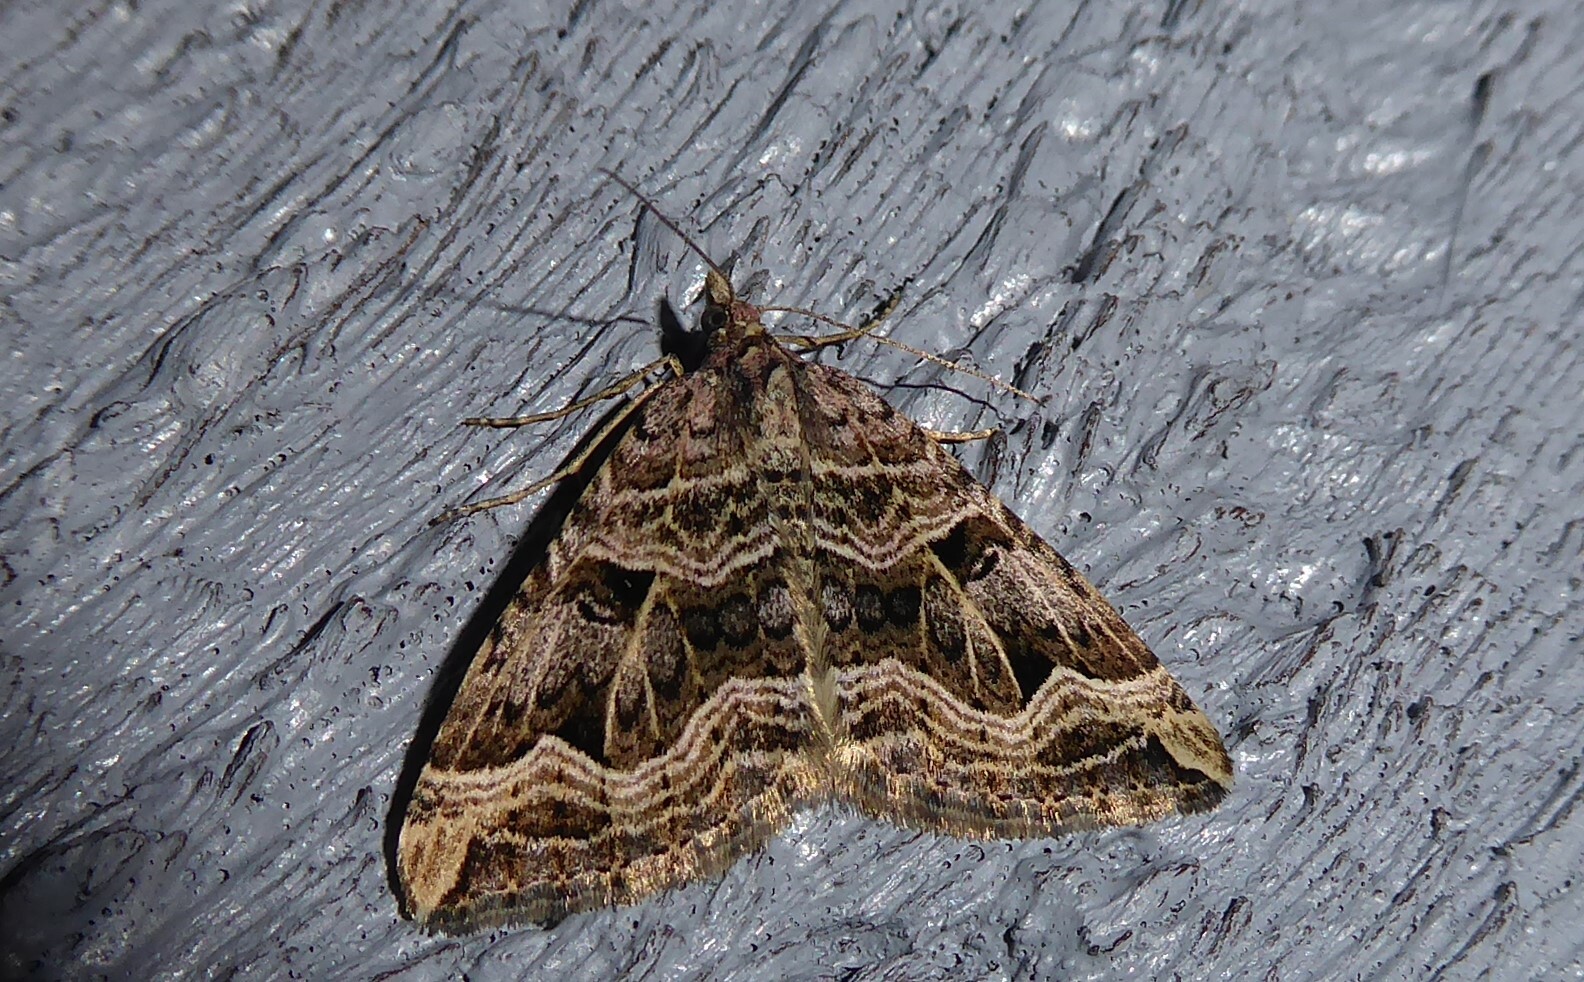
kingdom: Animalia
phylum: Arthropoda
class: Insecta
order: Lepidoptera
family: Geometridae
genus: Xanthorhoe
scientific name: Xanthorhoe semifissata
